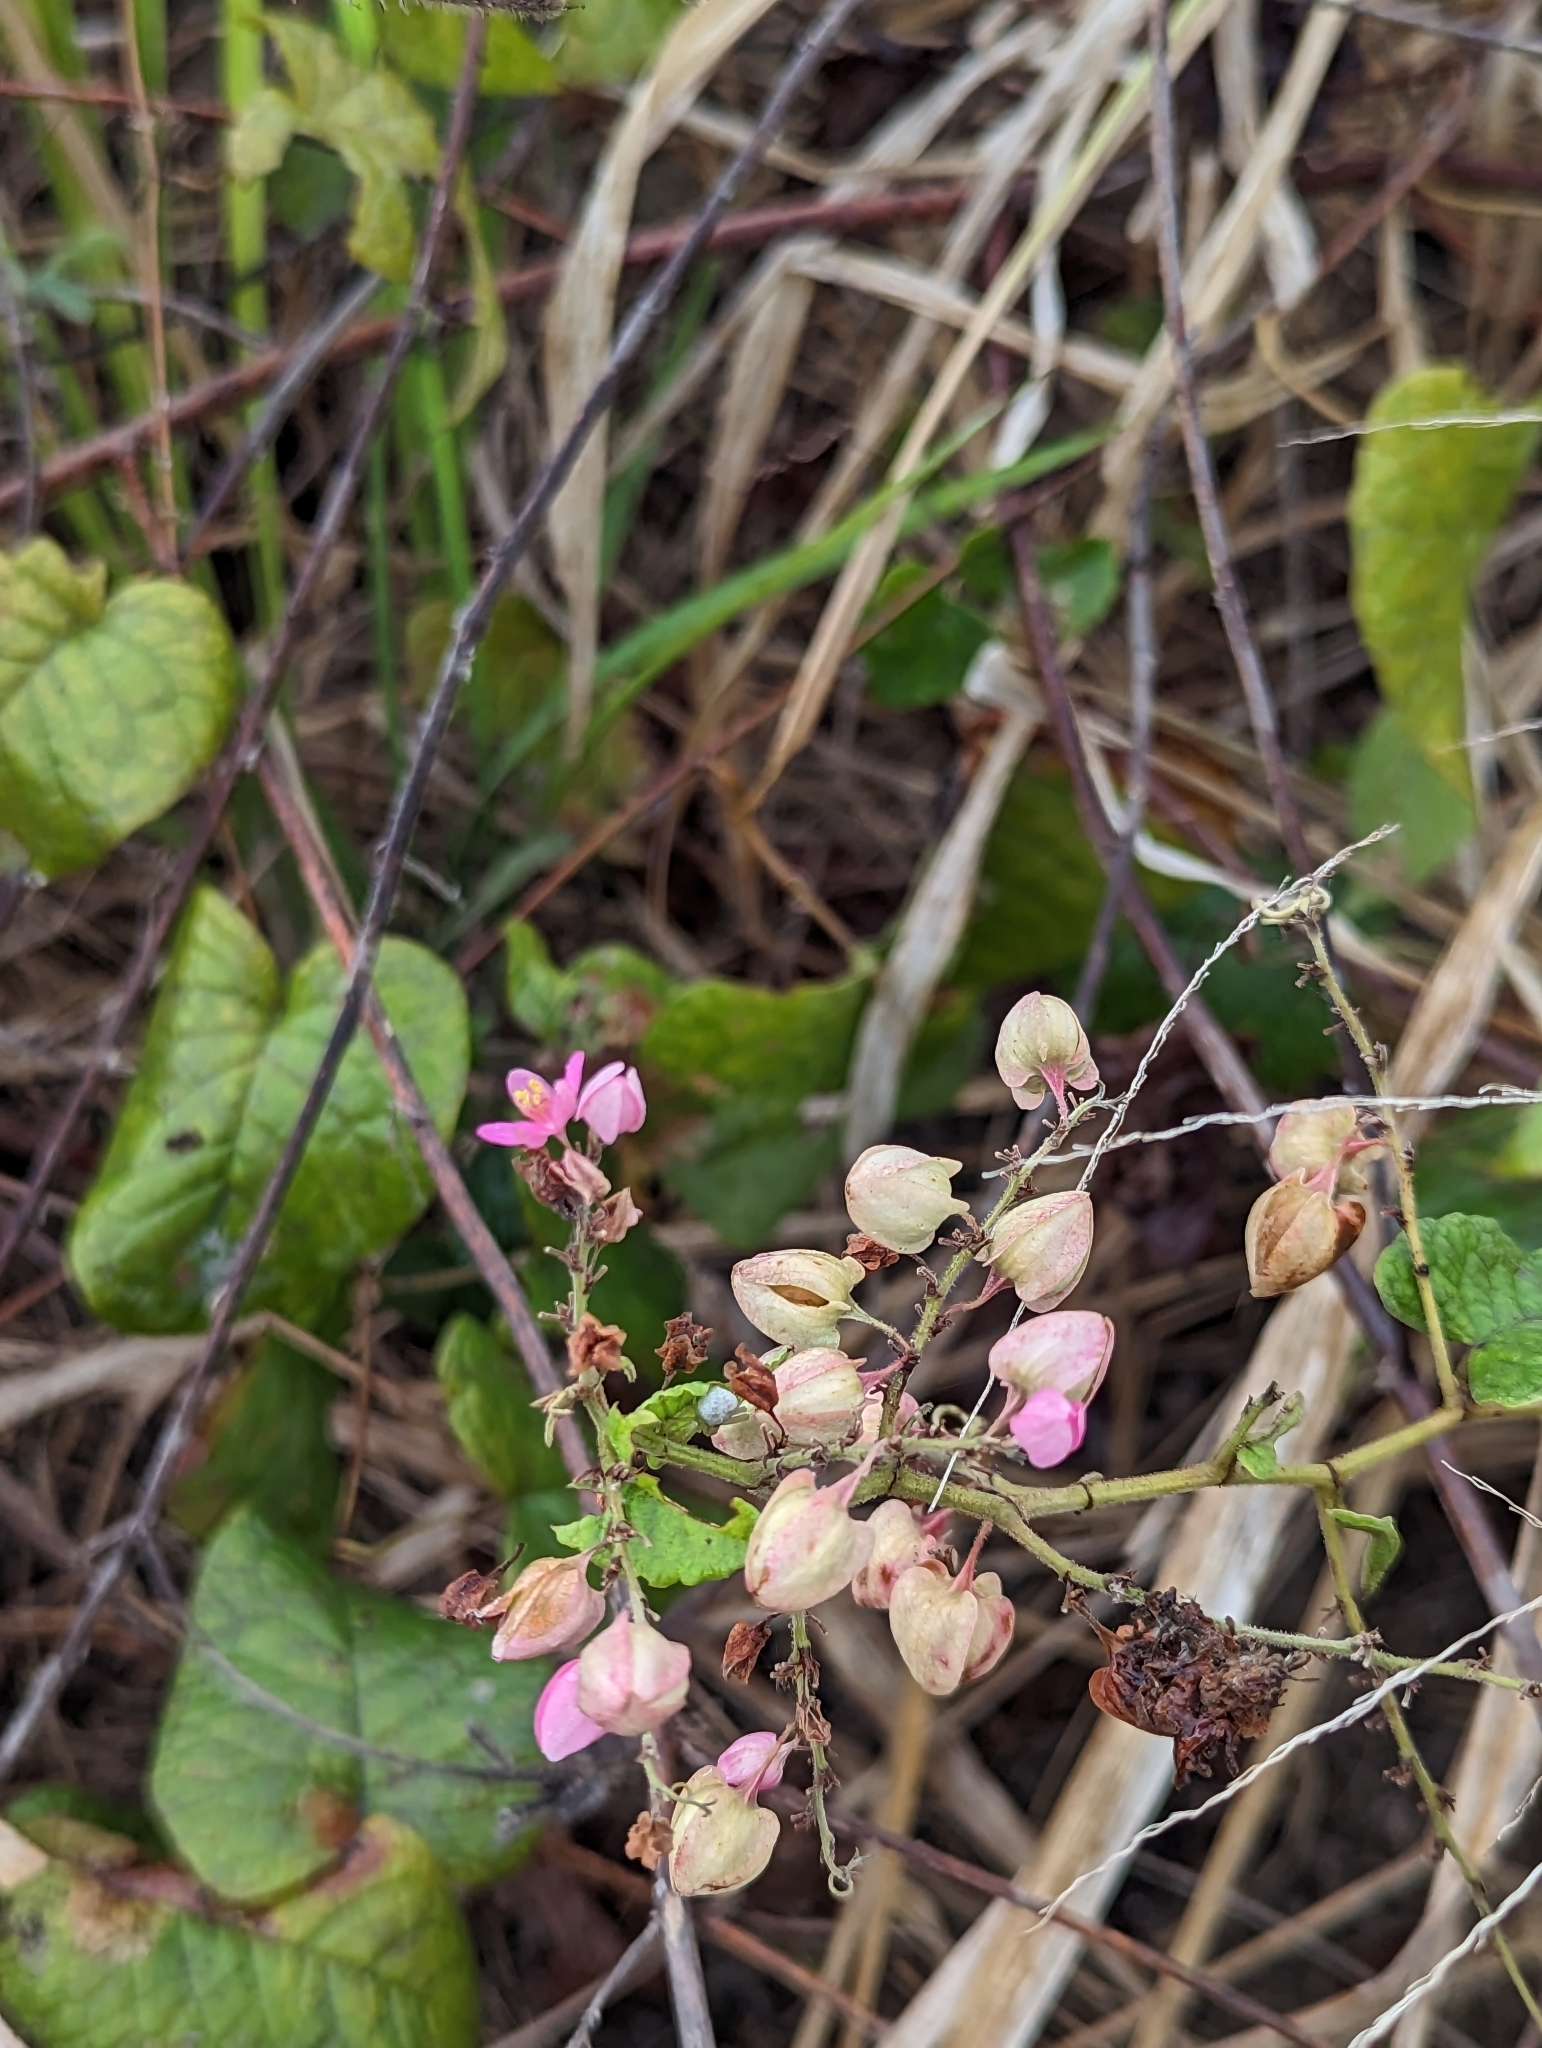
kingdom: Plantae
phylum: Tracheophyta
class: Magnoliopsida
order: Caryophyllales
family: Polygonaceae
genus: Antigonon
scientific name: Antigonon leptopus
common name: Coral vine
